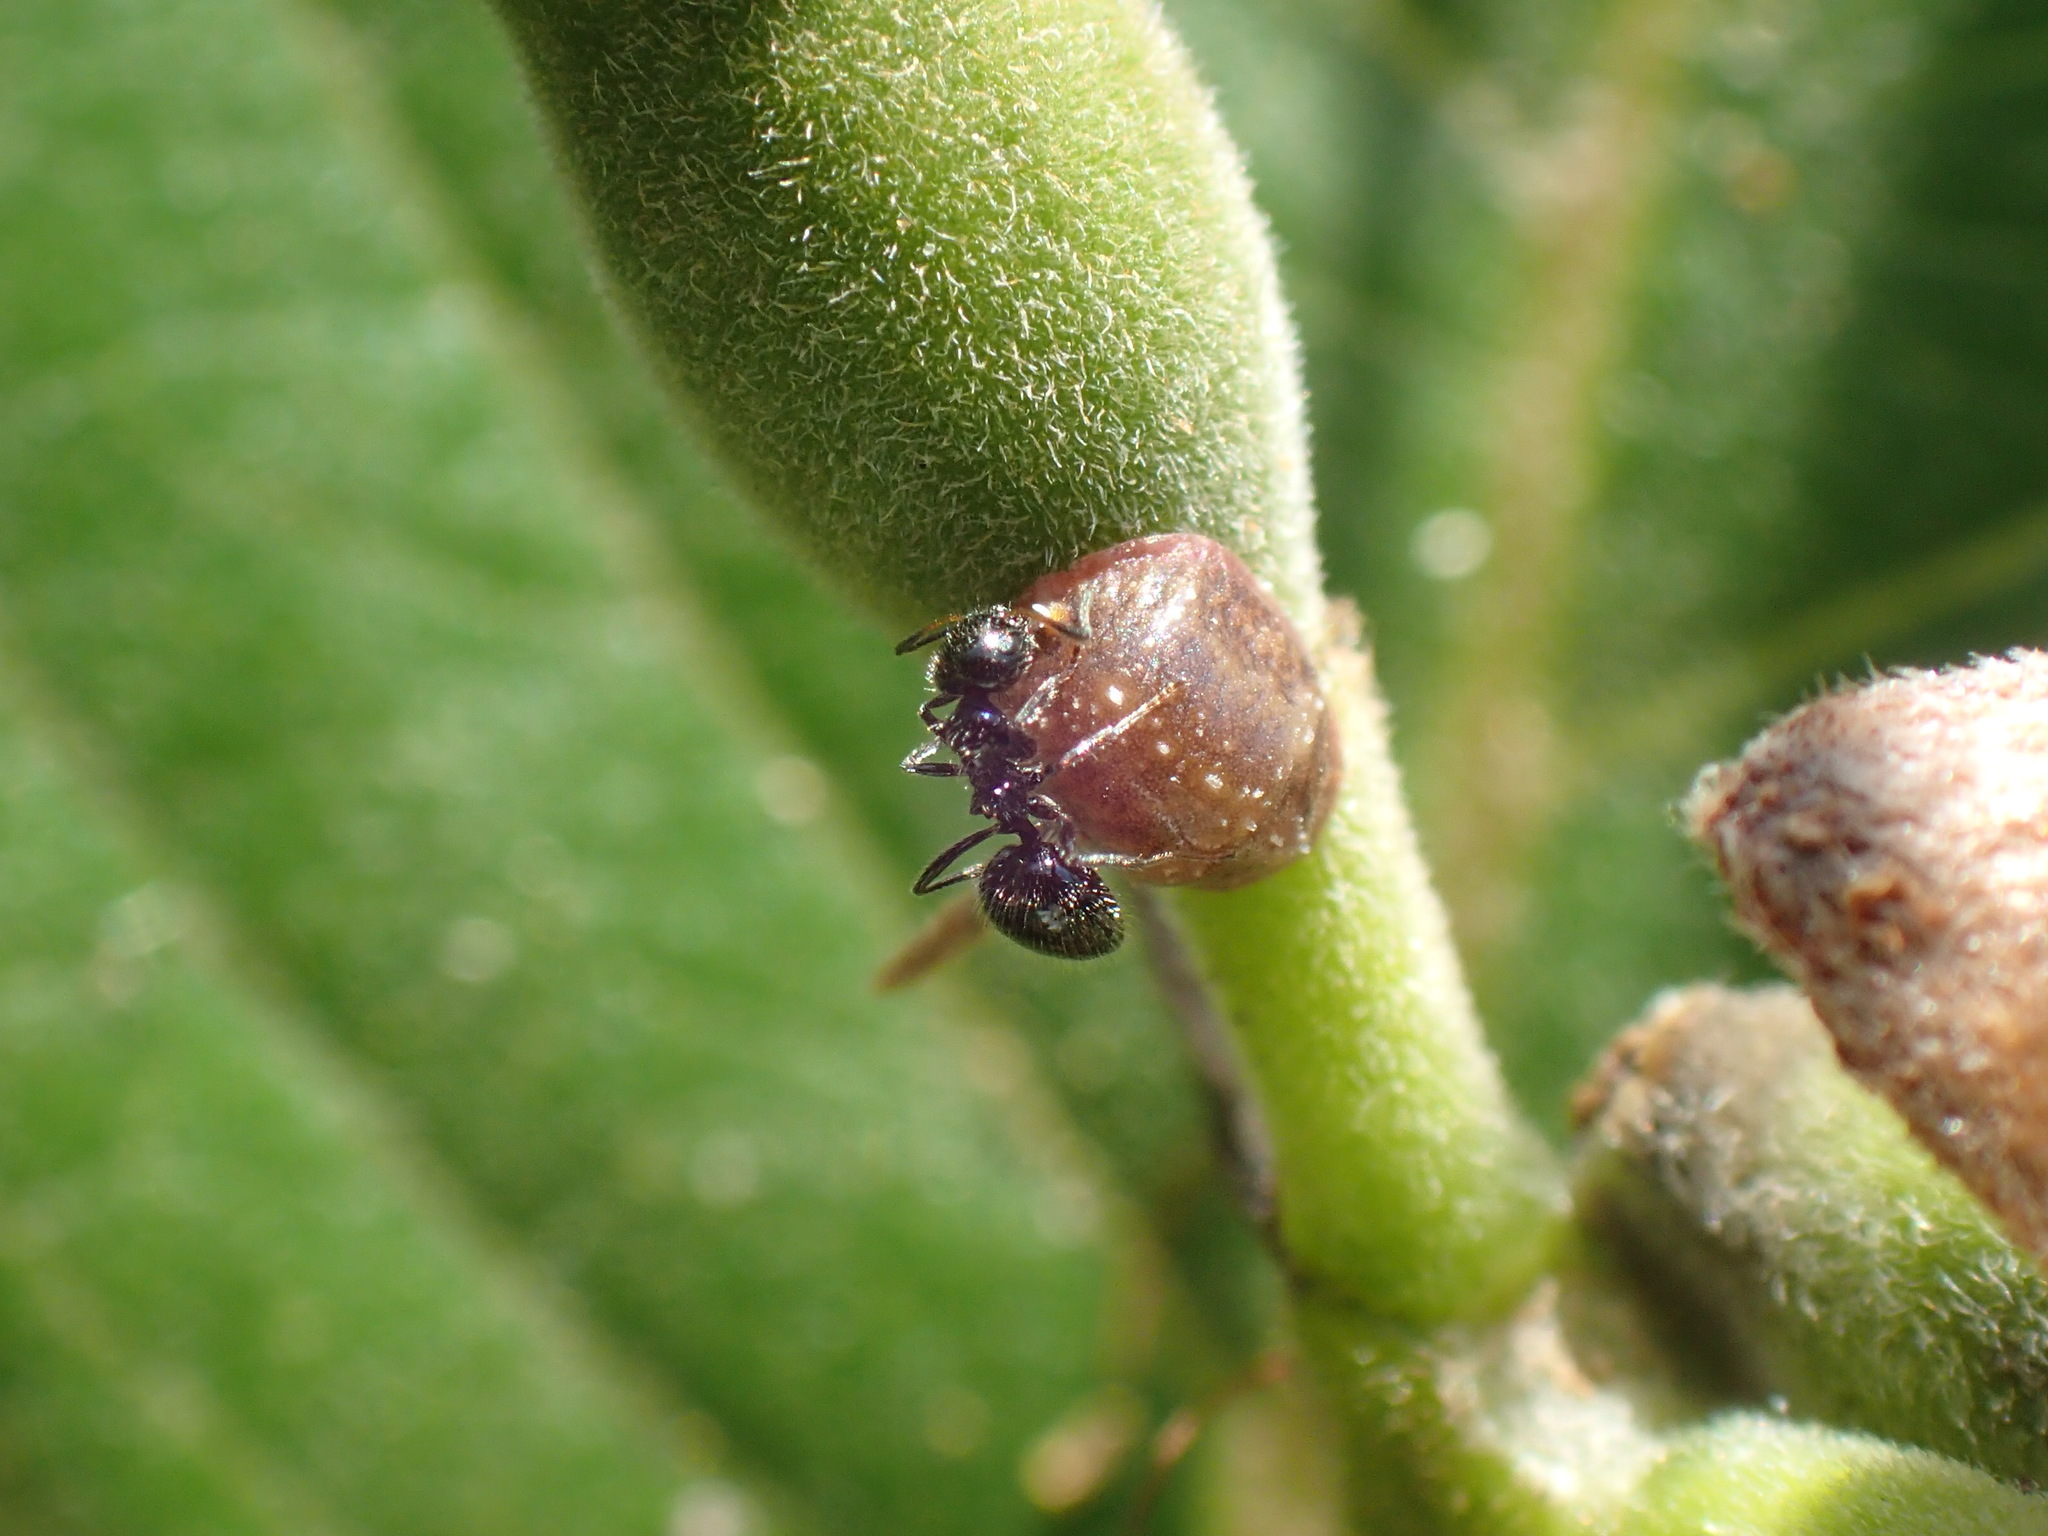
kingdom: Animalia
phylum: Arthropoda
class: Insecta
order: Hymenoptera
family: Formicidae
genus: Lepisiota
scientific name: Lepisiota crinita
